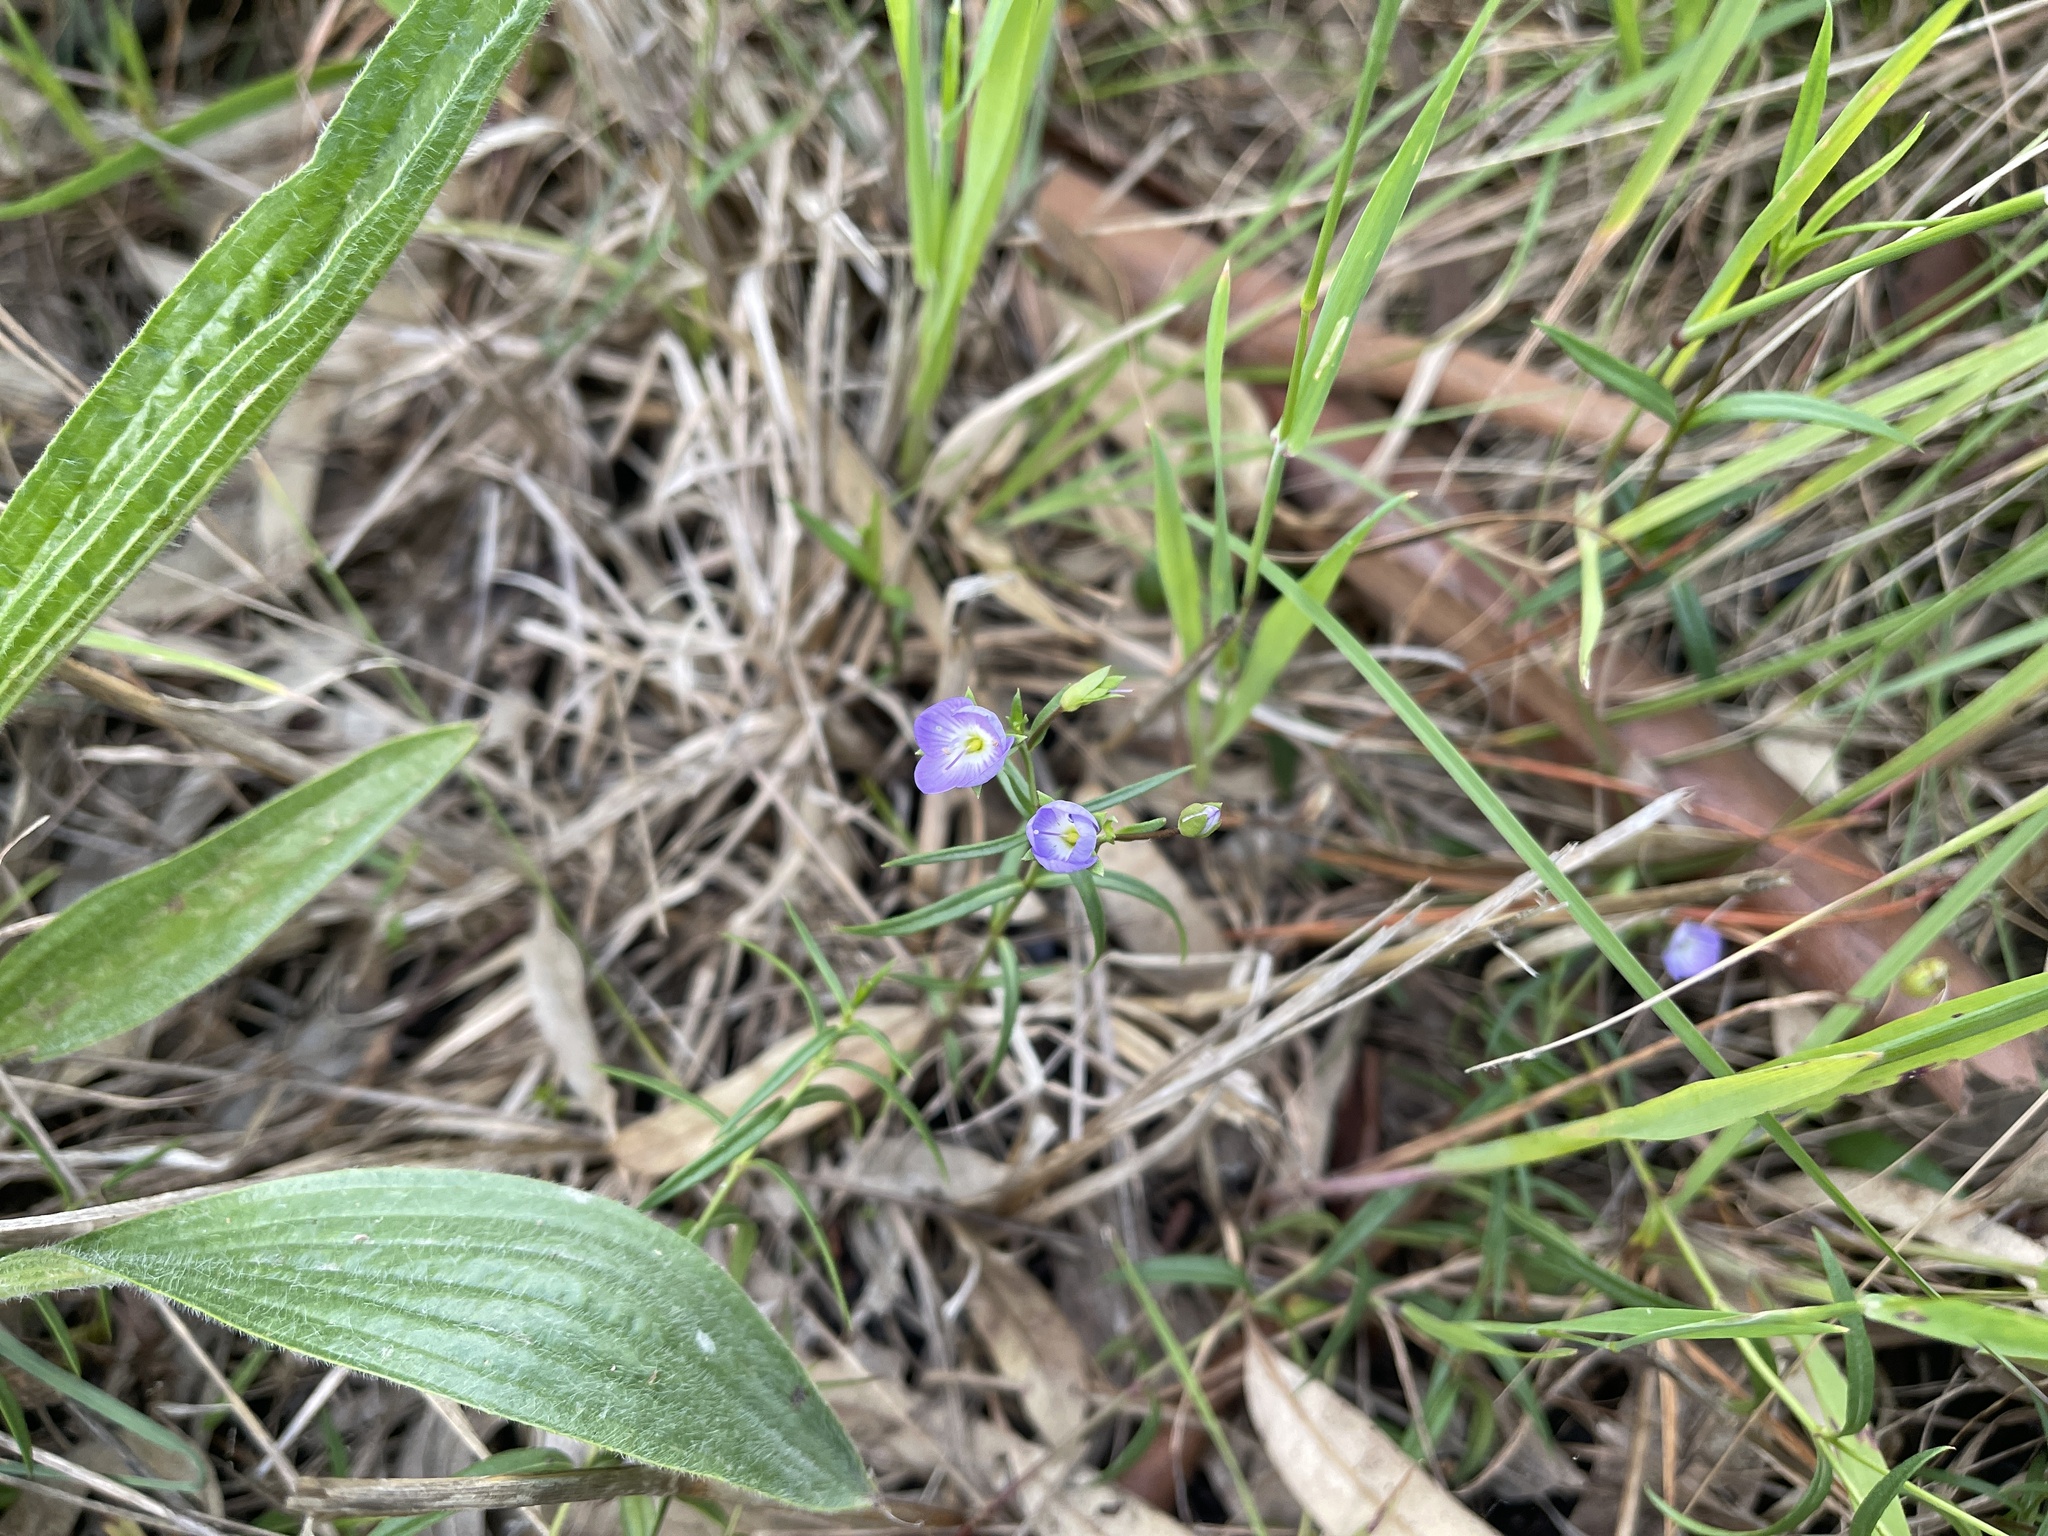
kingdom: Plantae
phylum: Tracheophyta
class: Magnoliopsida
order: Lamiales
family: Plantaginaceae
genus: Veronica
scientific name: Veronica gracilis
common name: Slender speedwell
